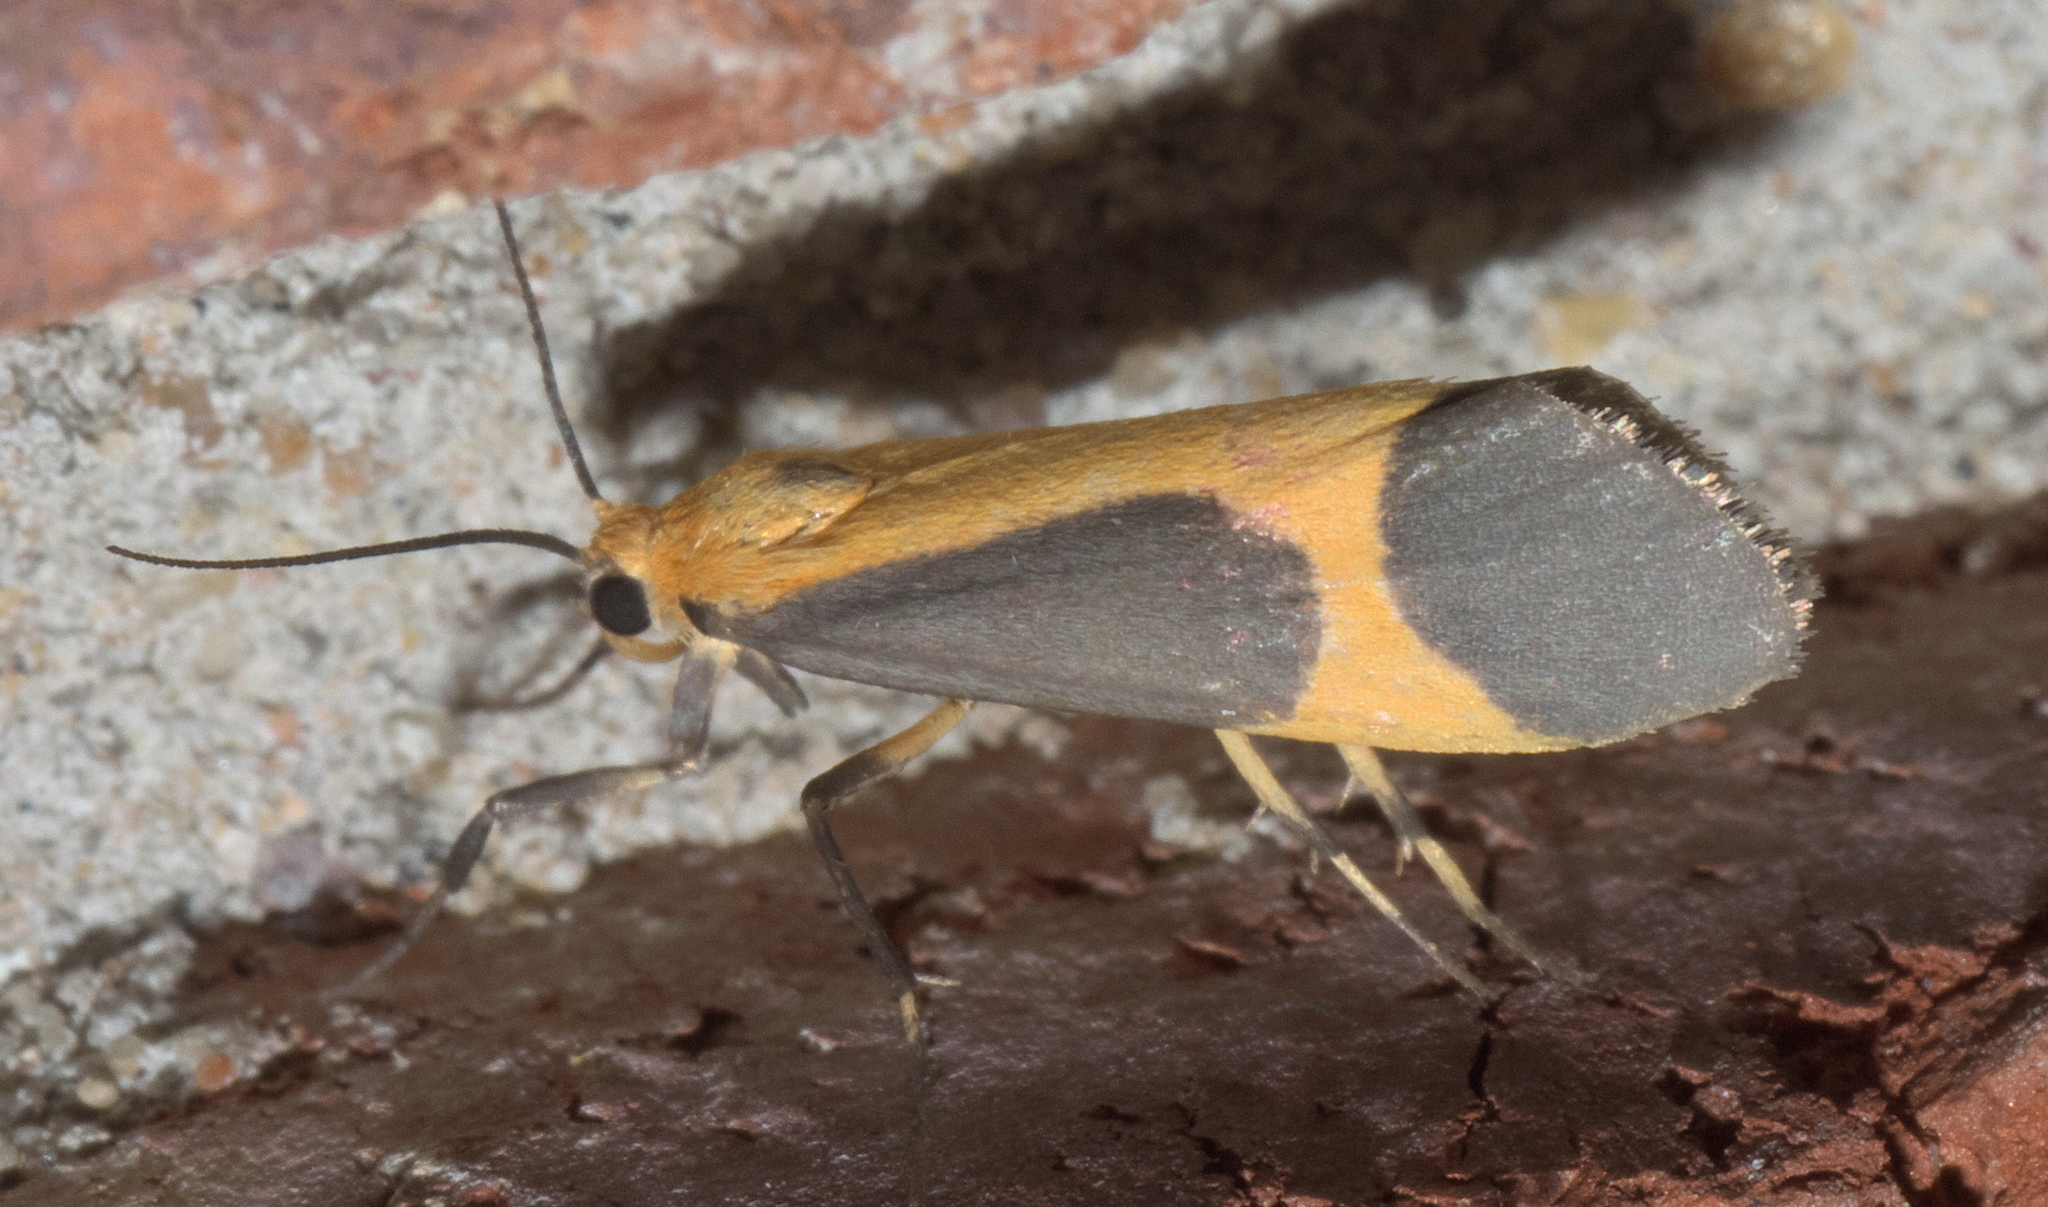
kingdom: Animalia
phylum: Arthropoda
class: Insecta
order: Lepidoptera
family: Erebidae
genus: Cisthene
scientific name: Cisthene picta
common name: Pictured lichen moth
